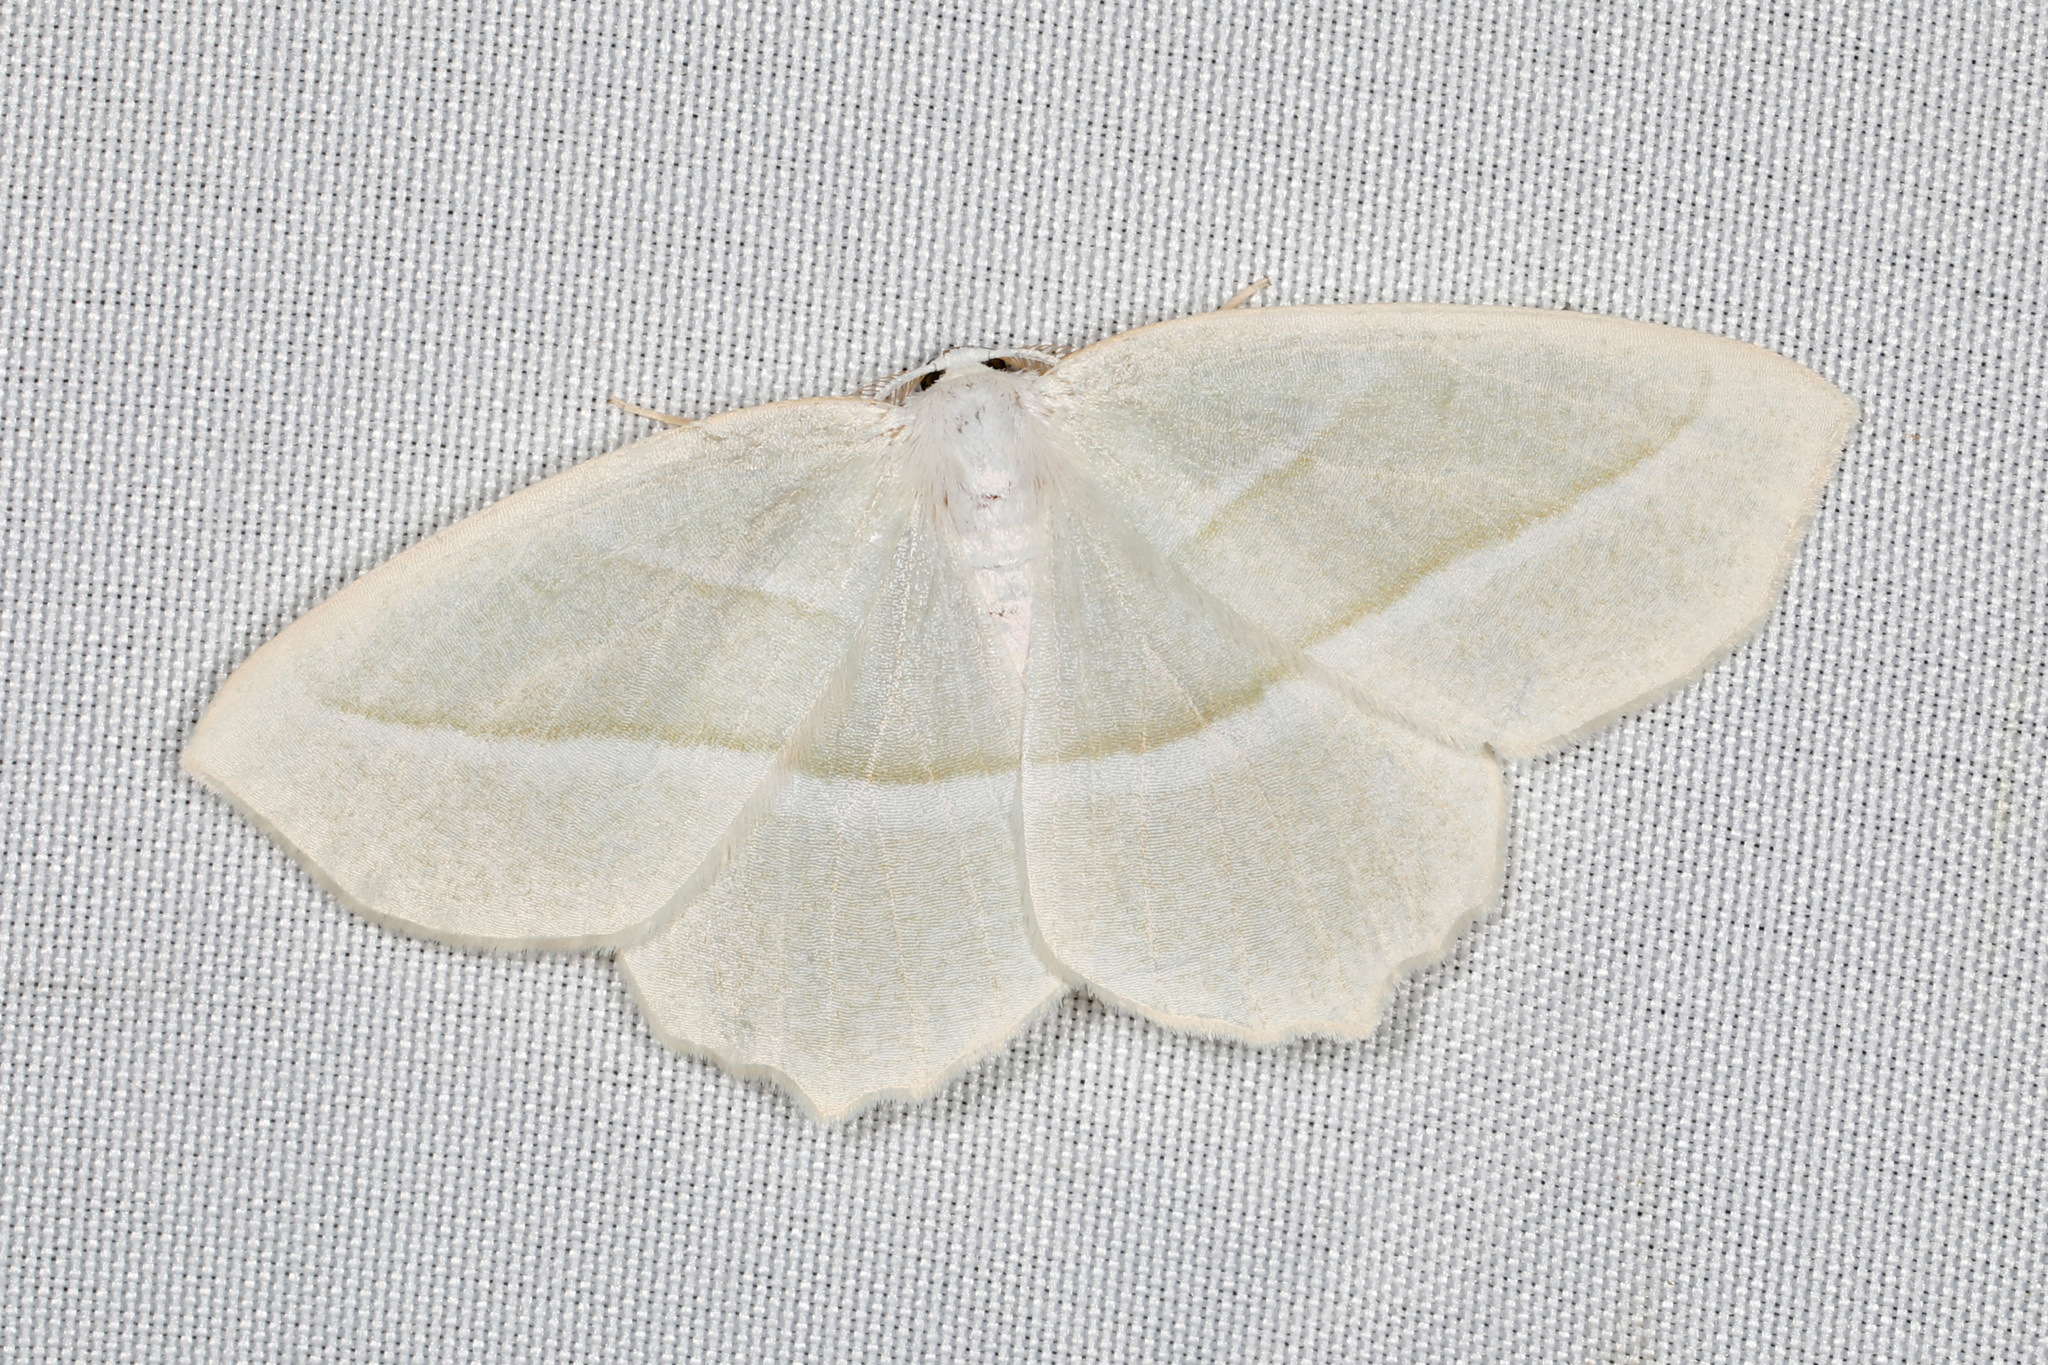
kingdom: Animalia
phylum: Arthropoda
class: Insecta
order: Lepidoptera
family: Geometridae
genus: Campaea
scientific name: Campaea perlata
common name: Fringed looper
